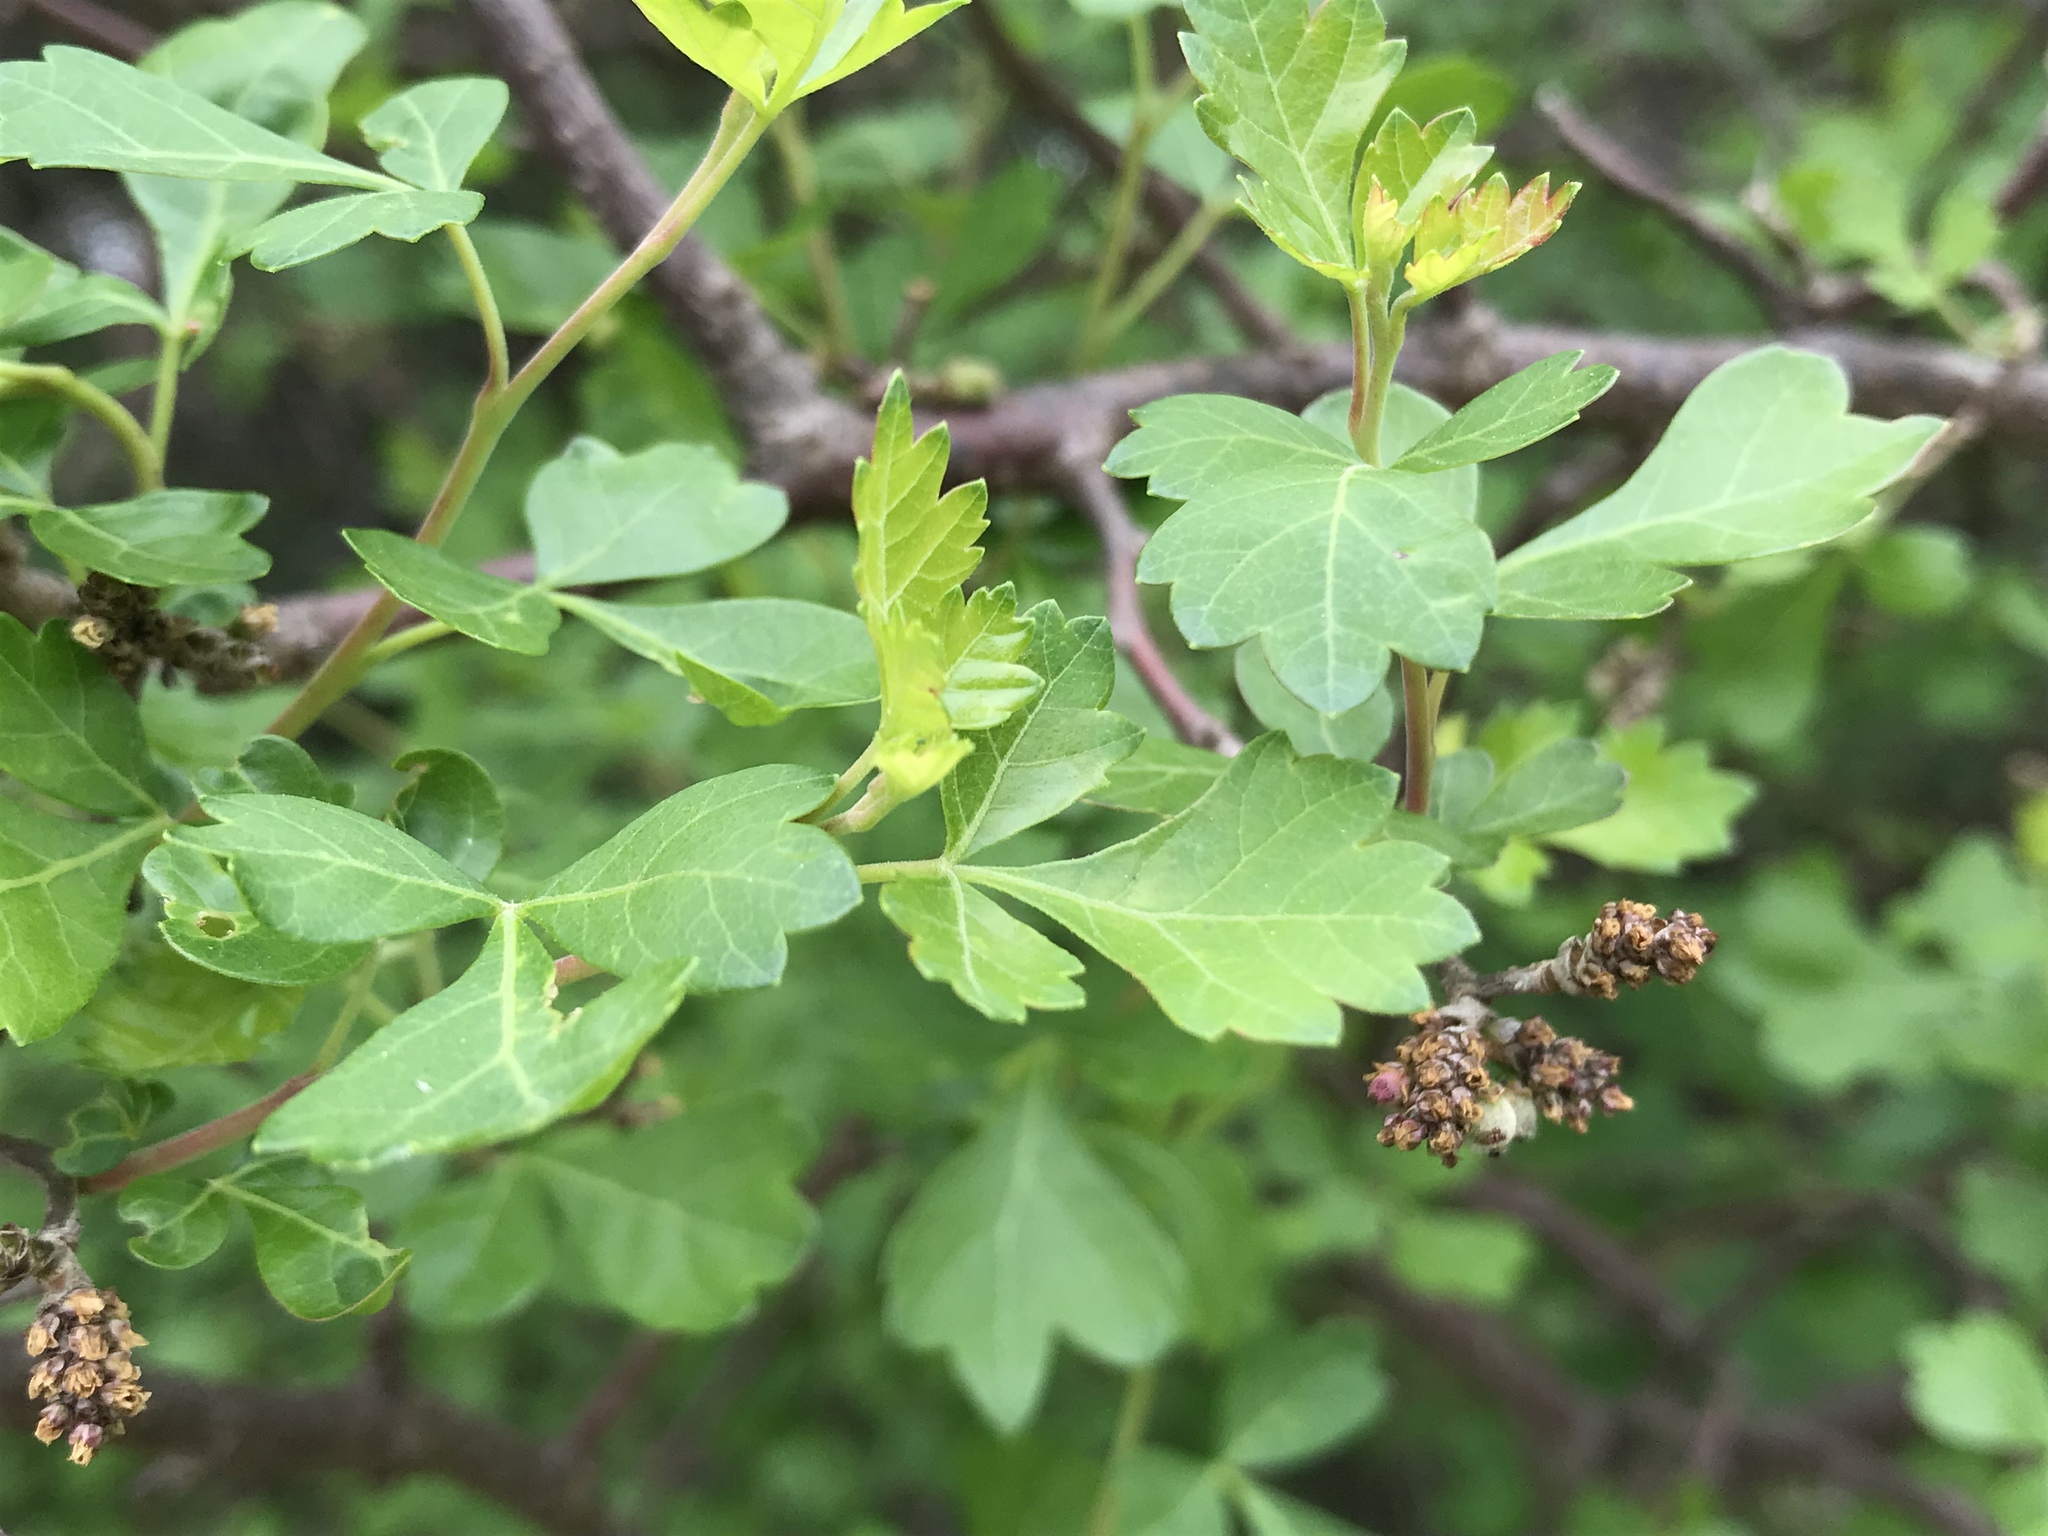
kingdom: Plantae
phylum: Tracheophyta
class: Magnoliopsida
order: Sapindales
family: Anacardiaceae
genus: Rhus
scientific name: Rhus aromatica
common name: Aromatic sumac
